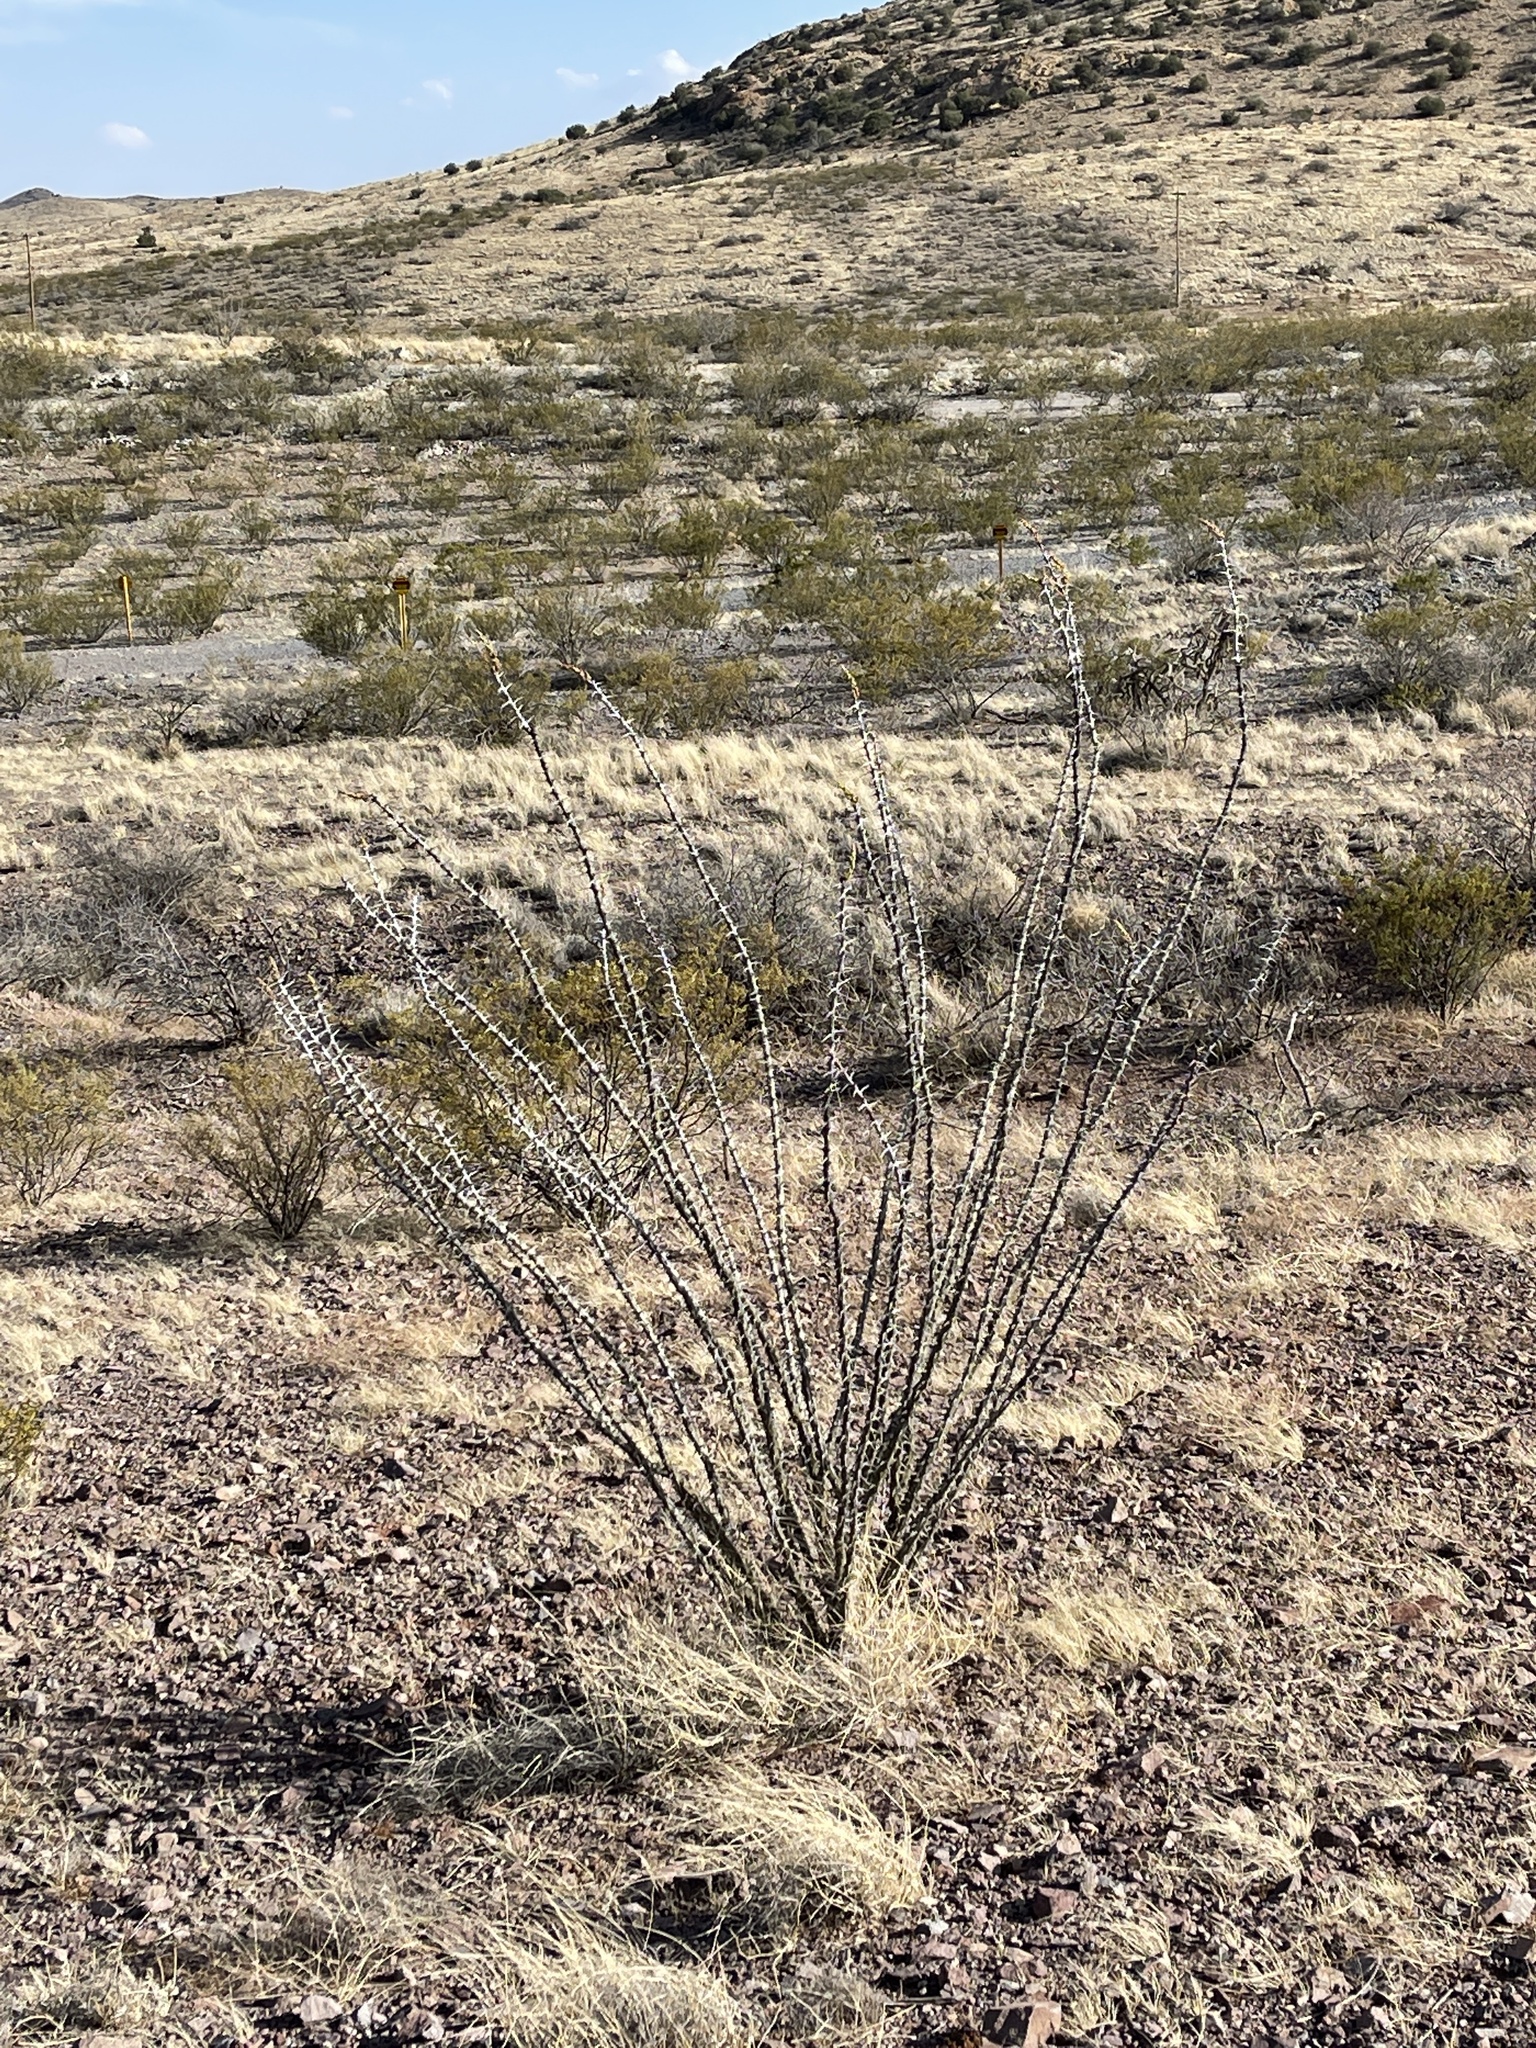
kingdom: Plantae
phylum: Tracheophyta
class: Magnoliopsida
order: Ericales
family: Fouquieriaceae
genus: Fouquieria
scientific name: Fouquieria splendens
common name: Vine-cactus
